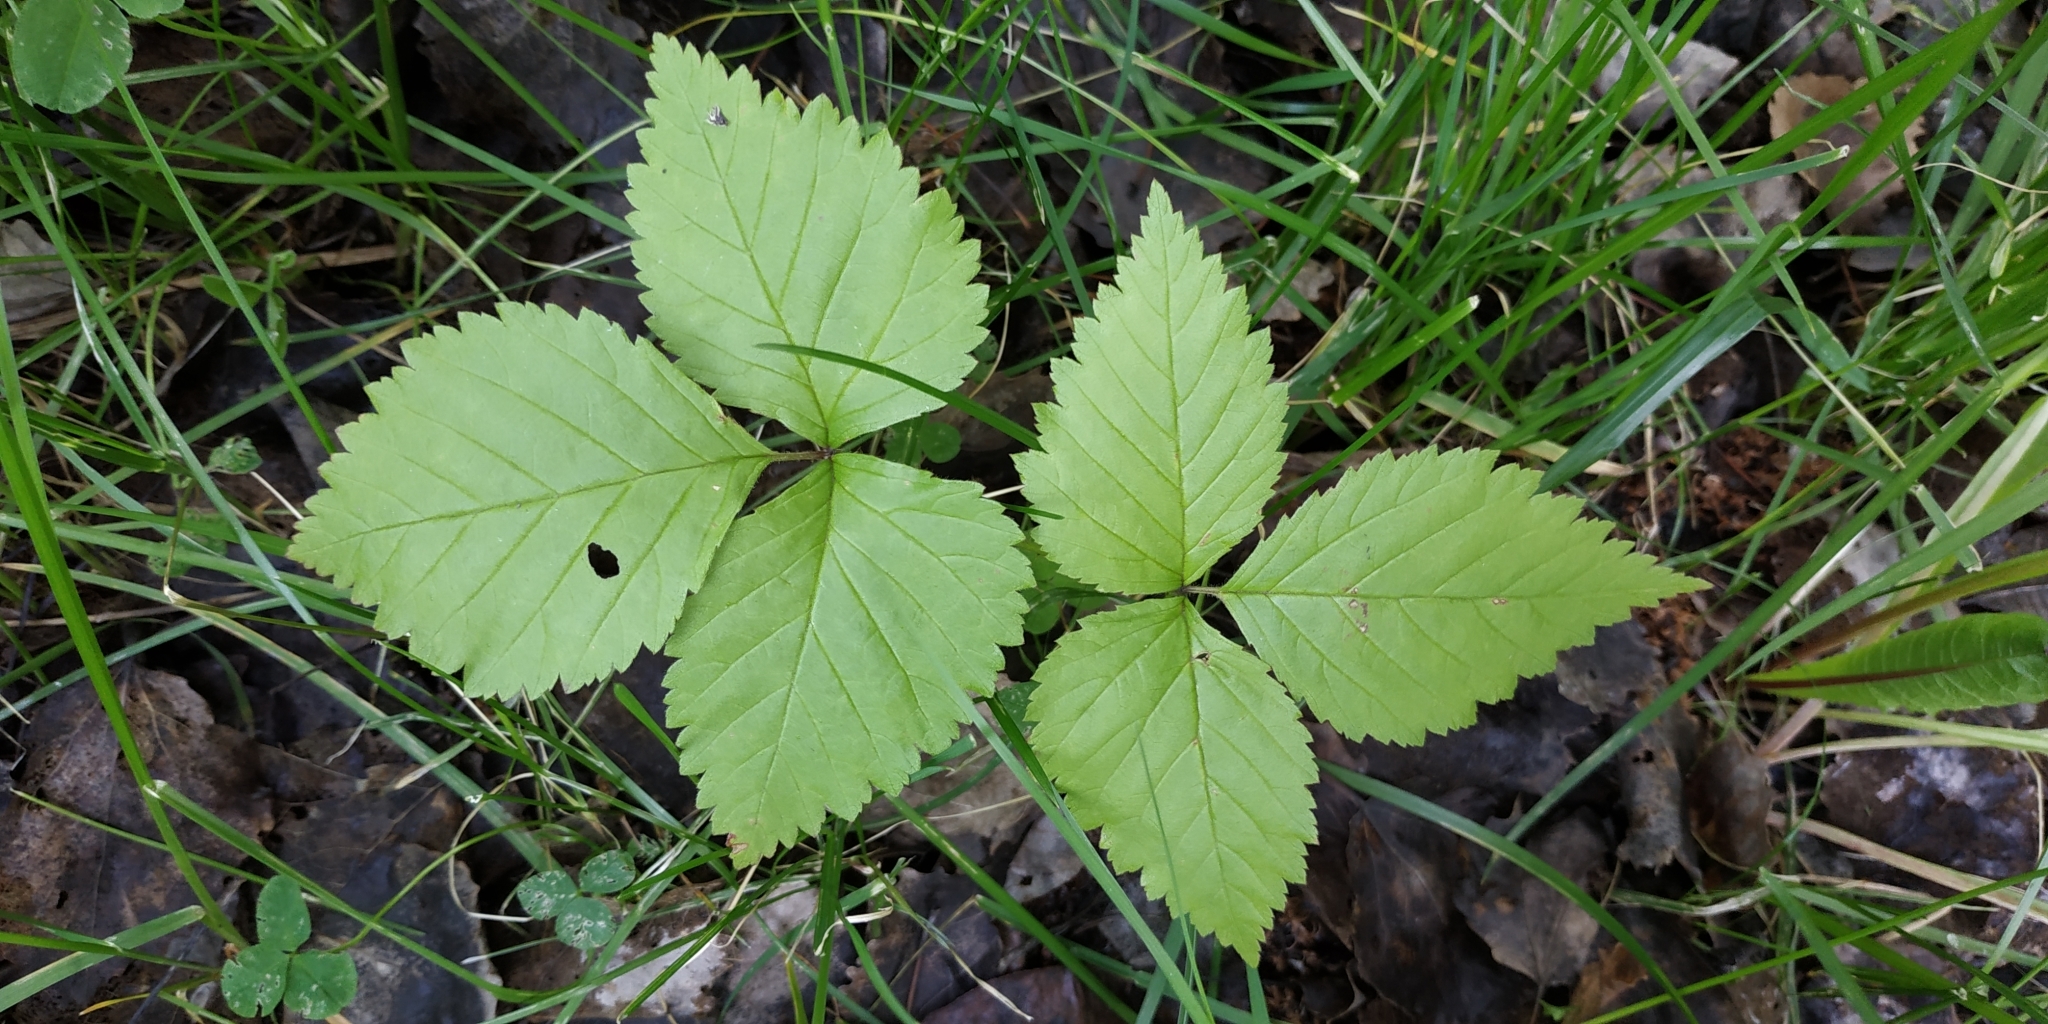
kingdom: Plantae
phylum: Tracheophyta
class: Magnoliopsida
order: Rosales
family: Rosaceae
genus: Rubus
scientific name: Rubus saxatilis
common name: Stone bramble
